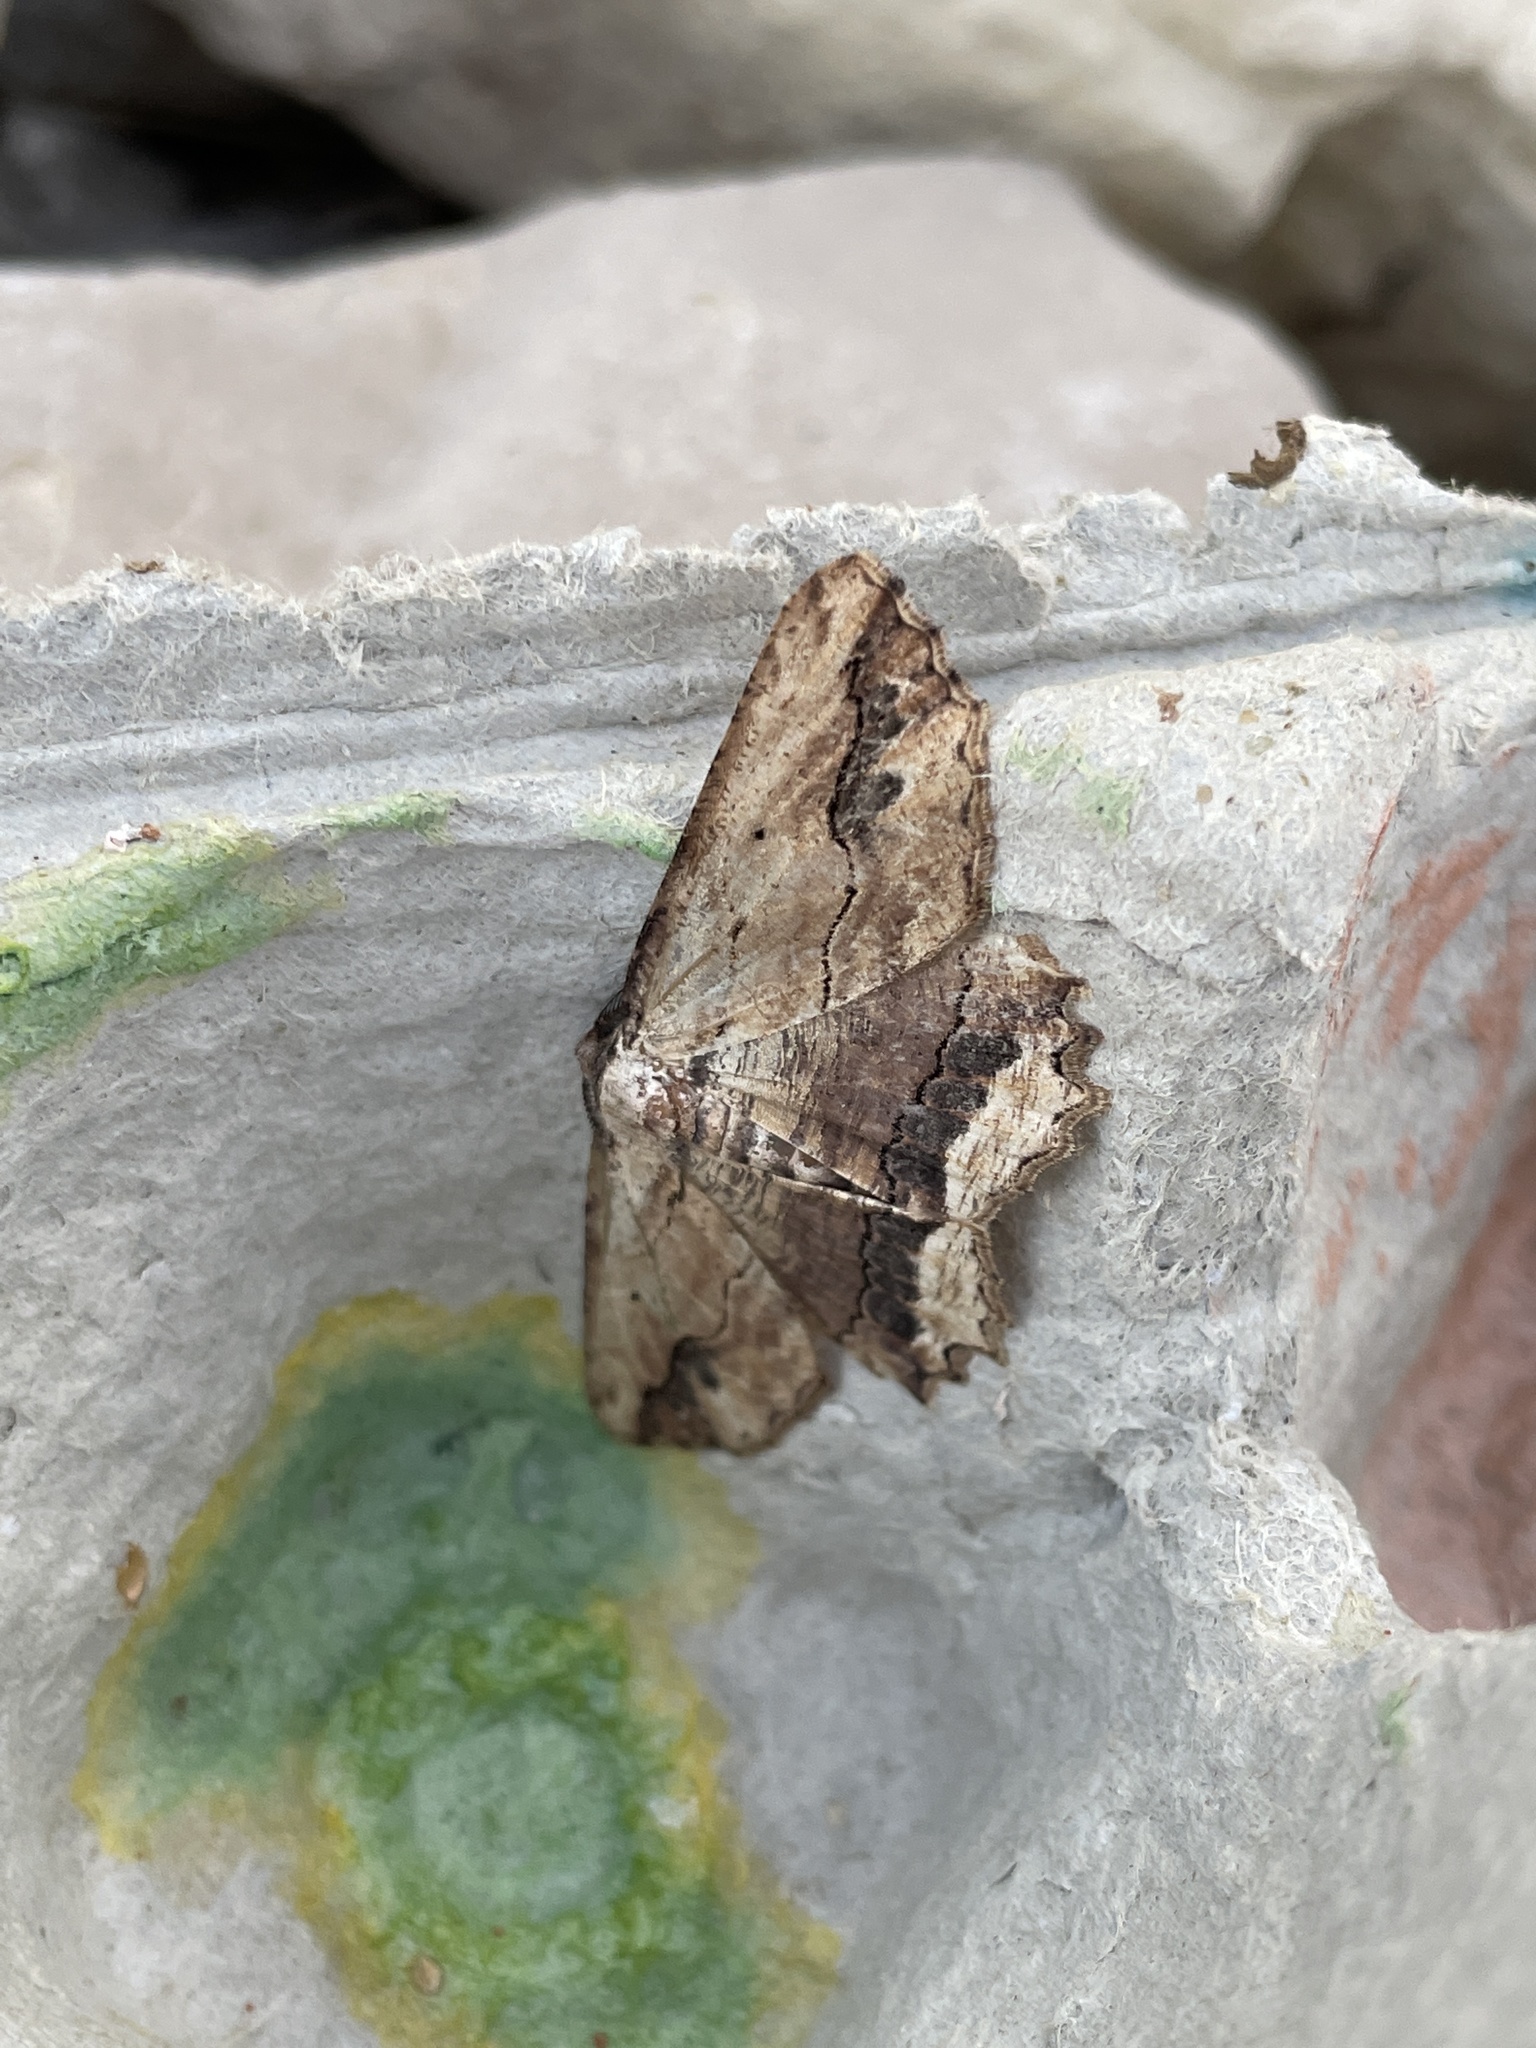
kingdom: Animalia
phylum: Arthropoda
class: Insecta
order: Lepidoptera
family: Geometridae
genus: Menophra
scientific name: Menophra abruptaria
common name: Waved umber
